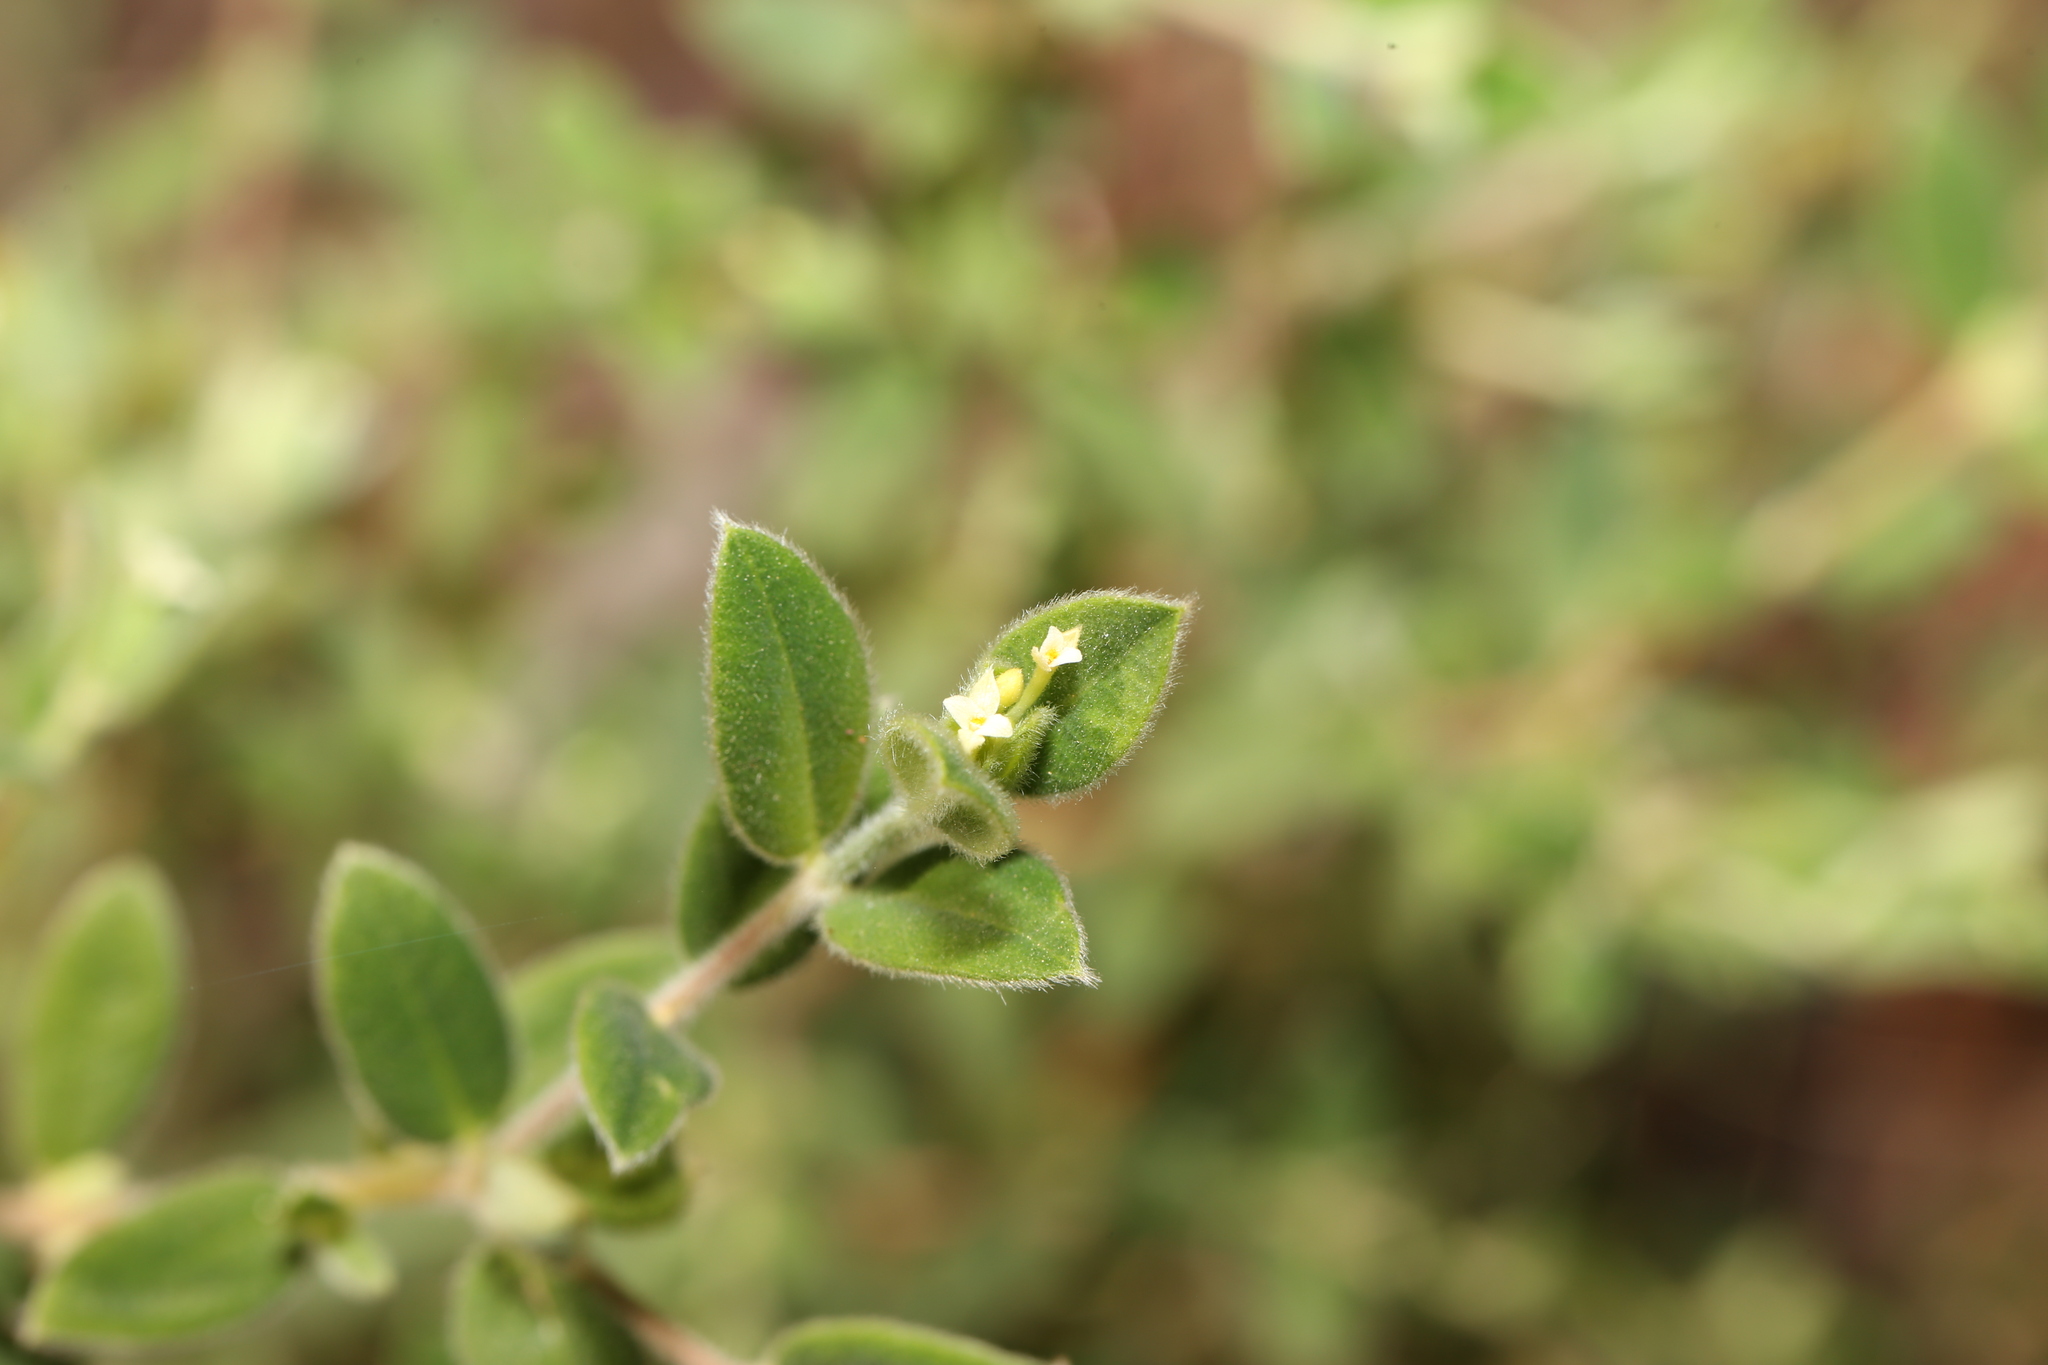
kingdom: Plantae
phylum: Tracheophyta
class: Magnoliopsida
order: Malvales
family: Thymelaeaceae
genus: Pimelea
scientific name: Pimelea altior
